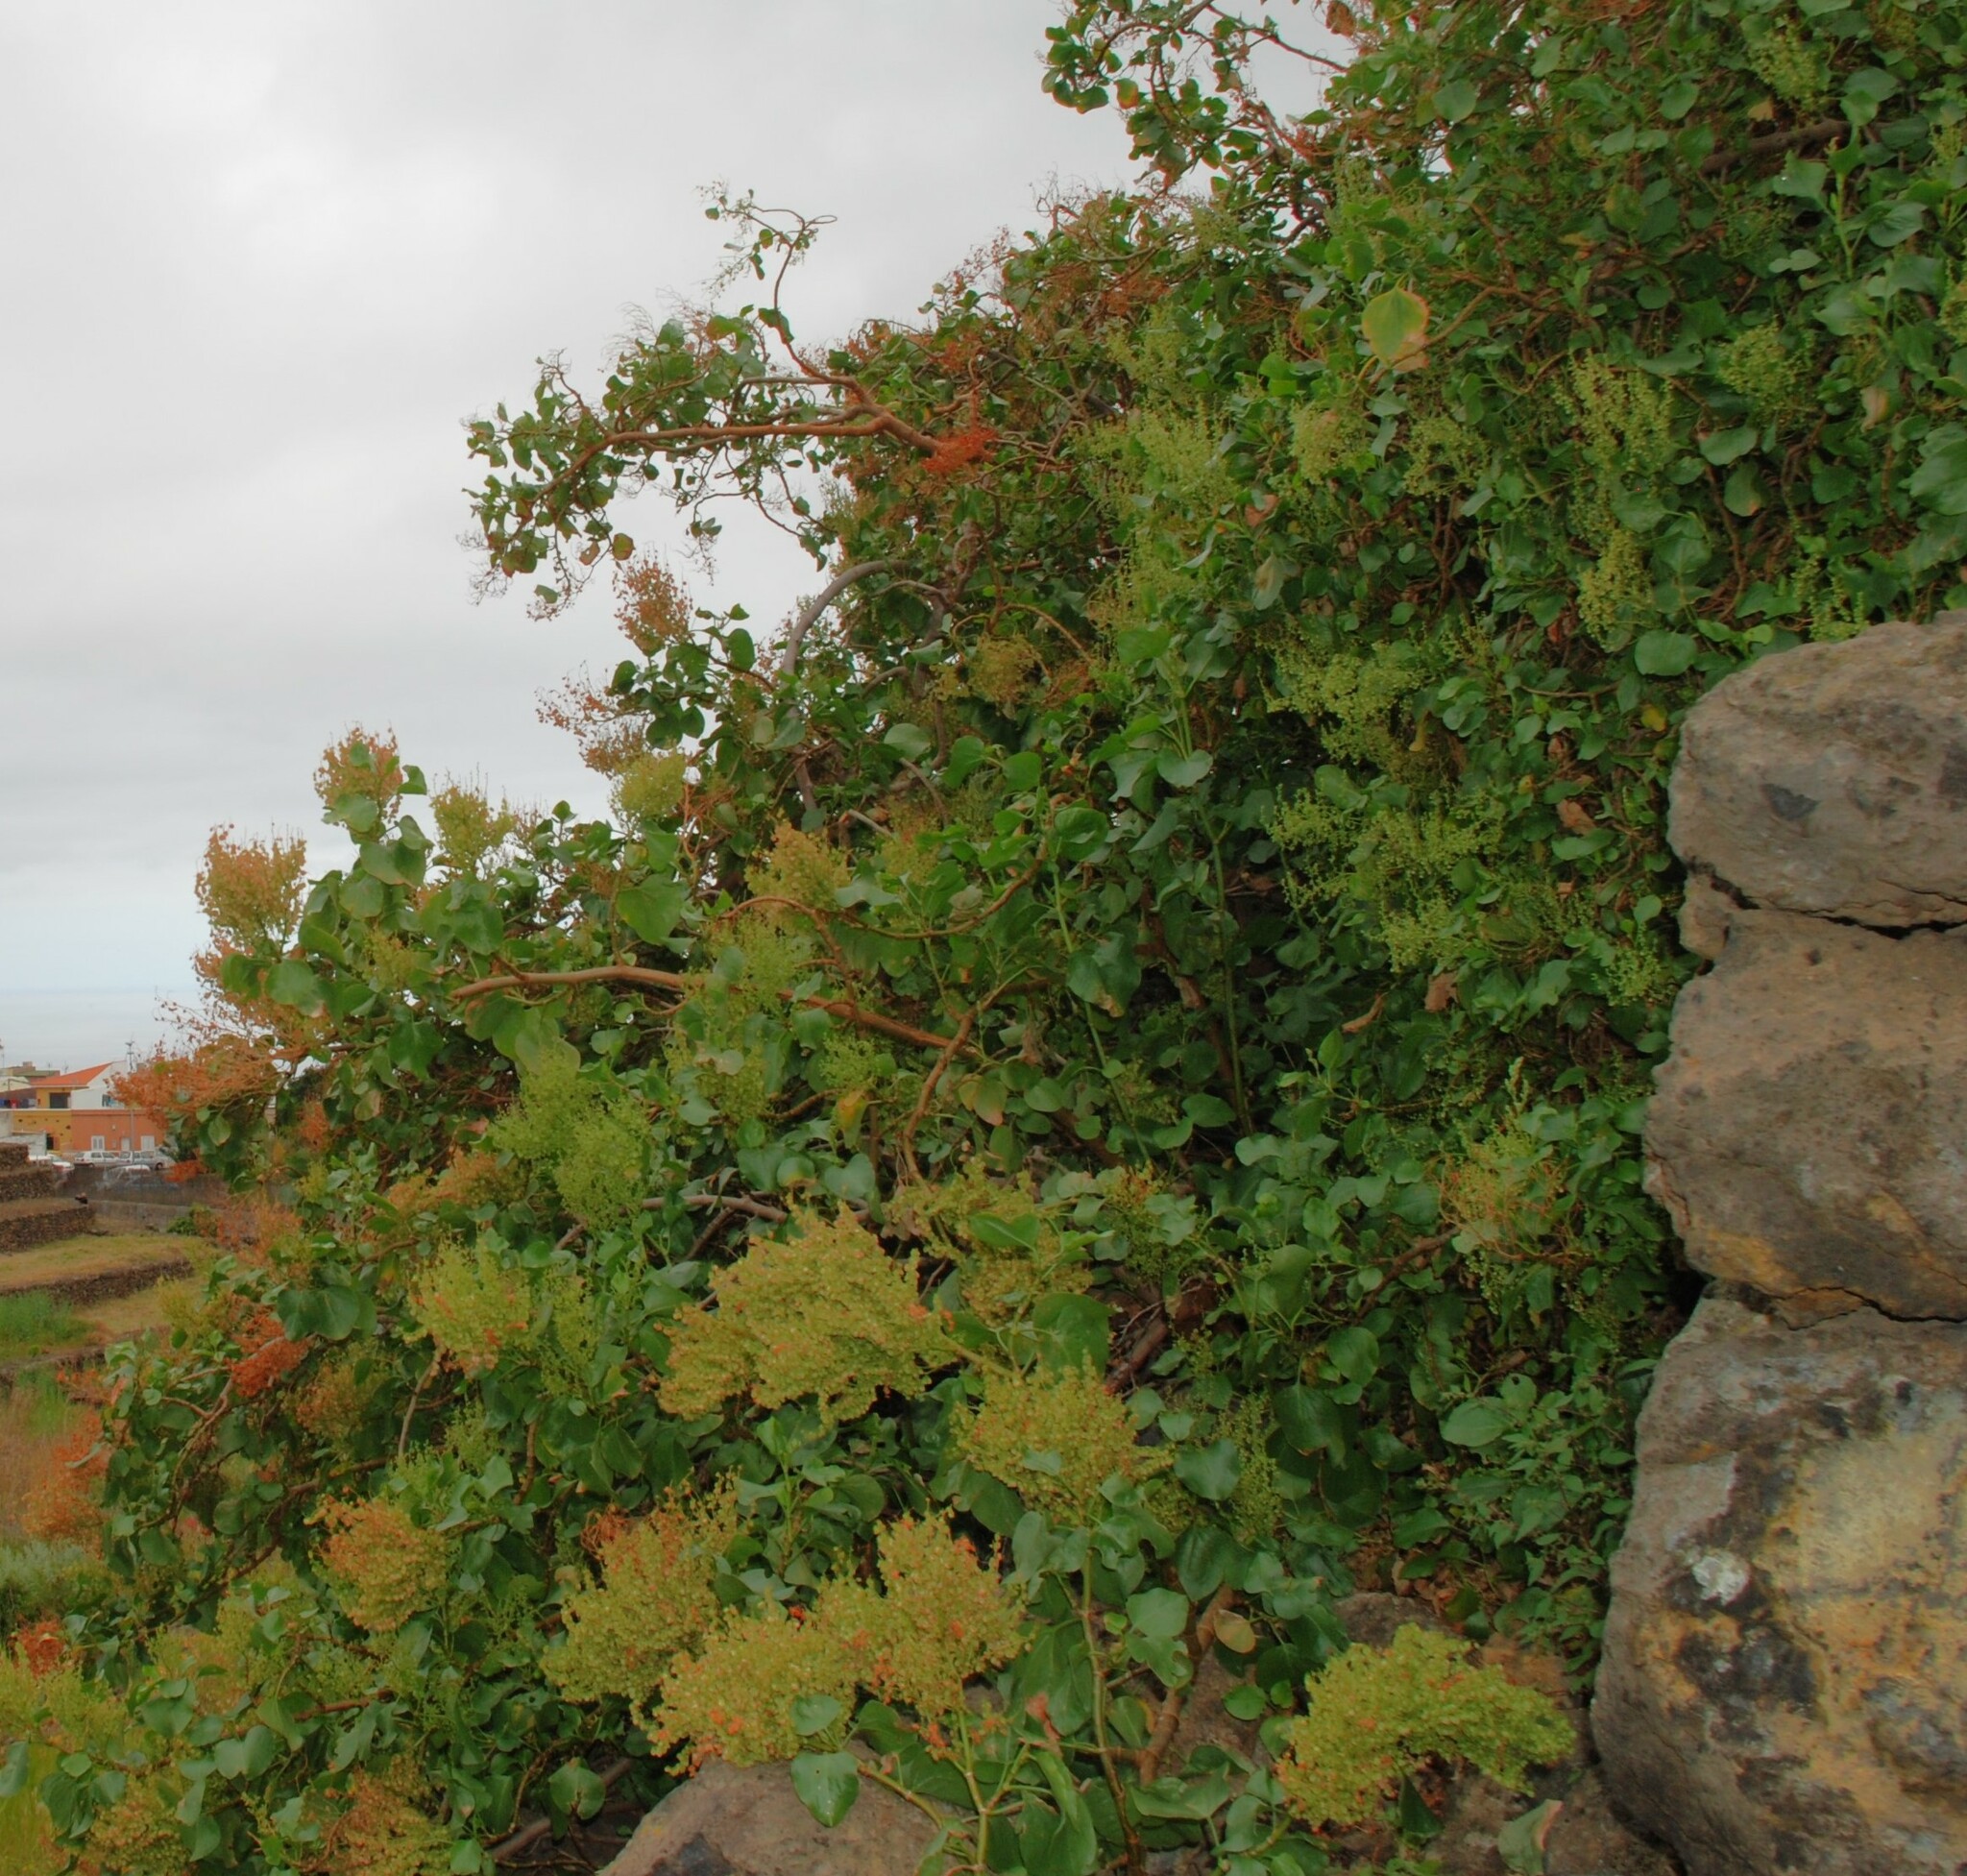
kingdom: Plantae
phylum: Tracheophyta
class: Magnoliopsida
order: Caryophyllales
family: Polygonaceae
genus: Rumex
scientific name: Rumex lunaria
